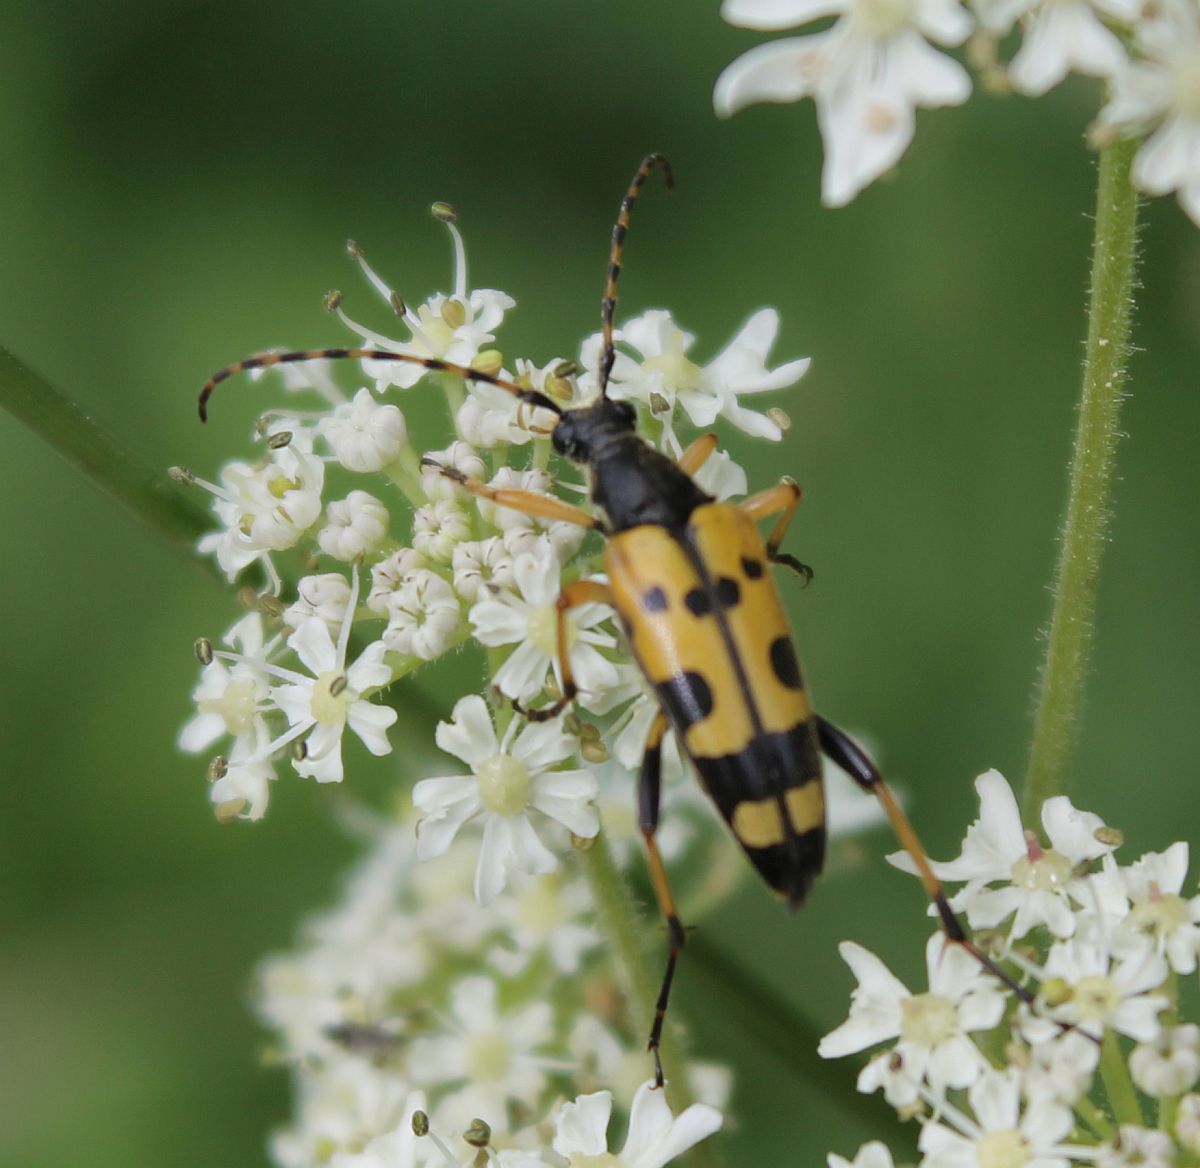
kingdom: Animalia
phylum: Arthropoda
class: Insecta
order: Coleoptera
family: Cerambycidae
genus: Rutpela
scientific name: Rutpela maculata
